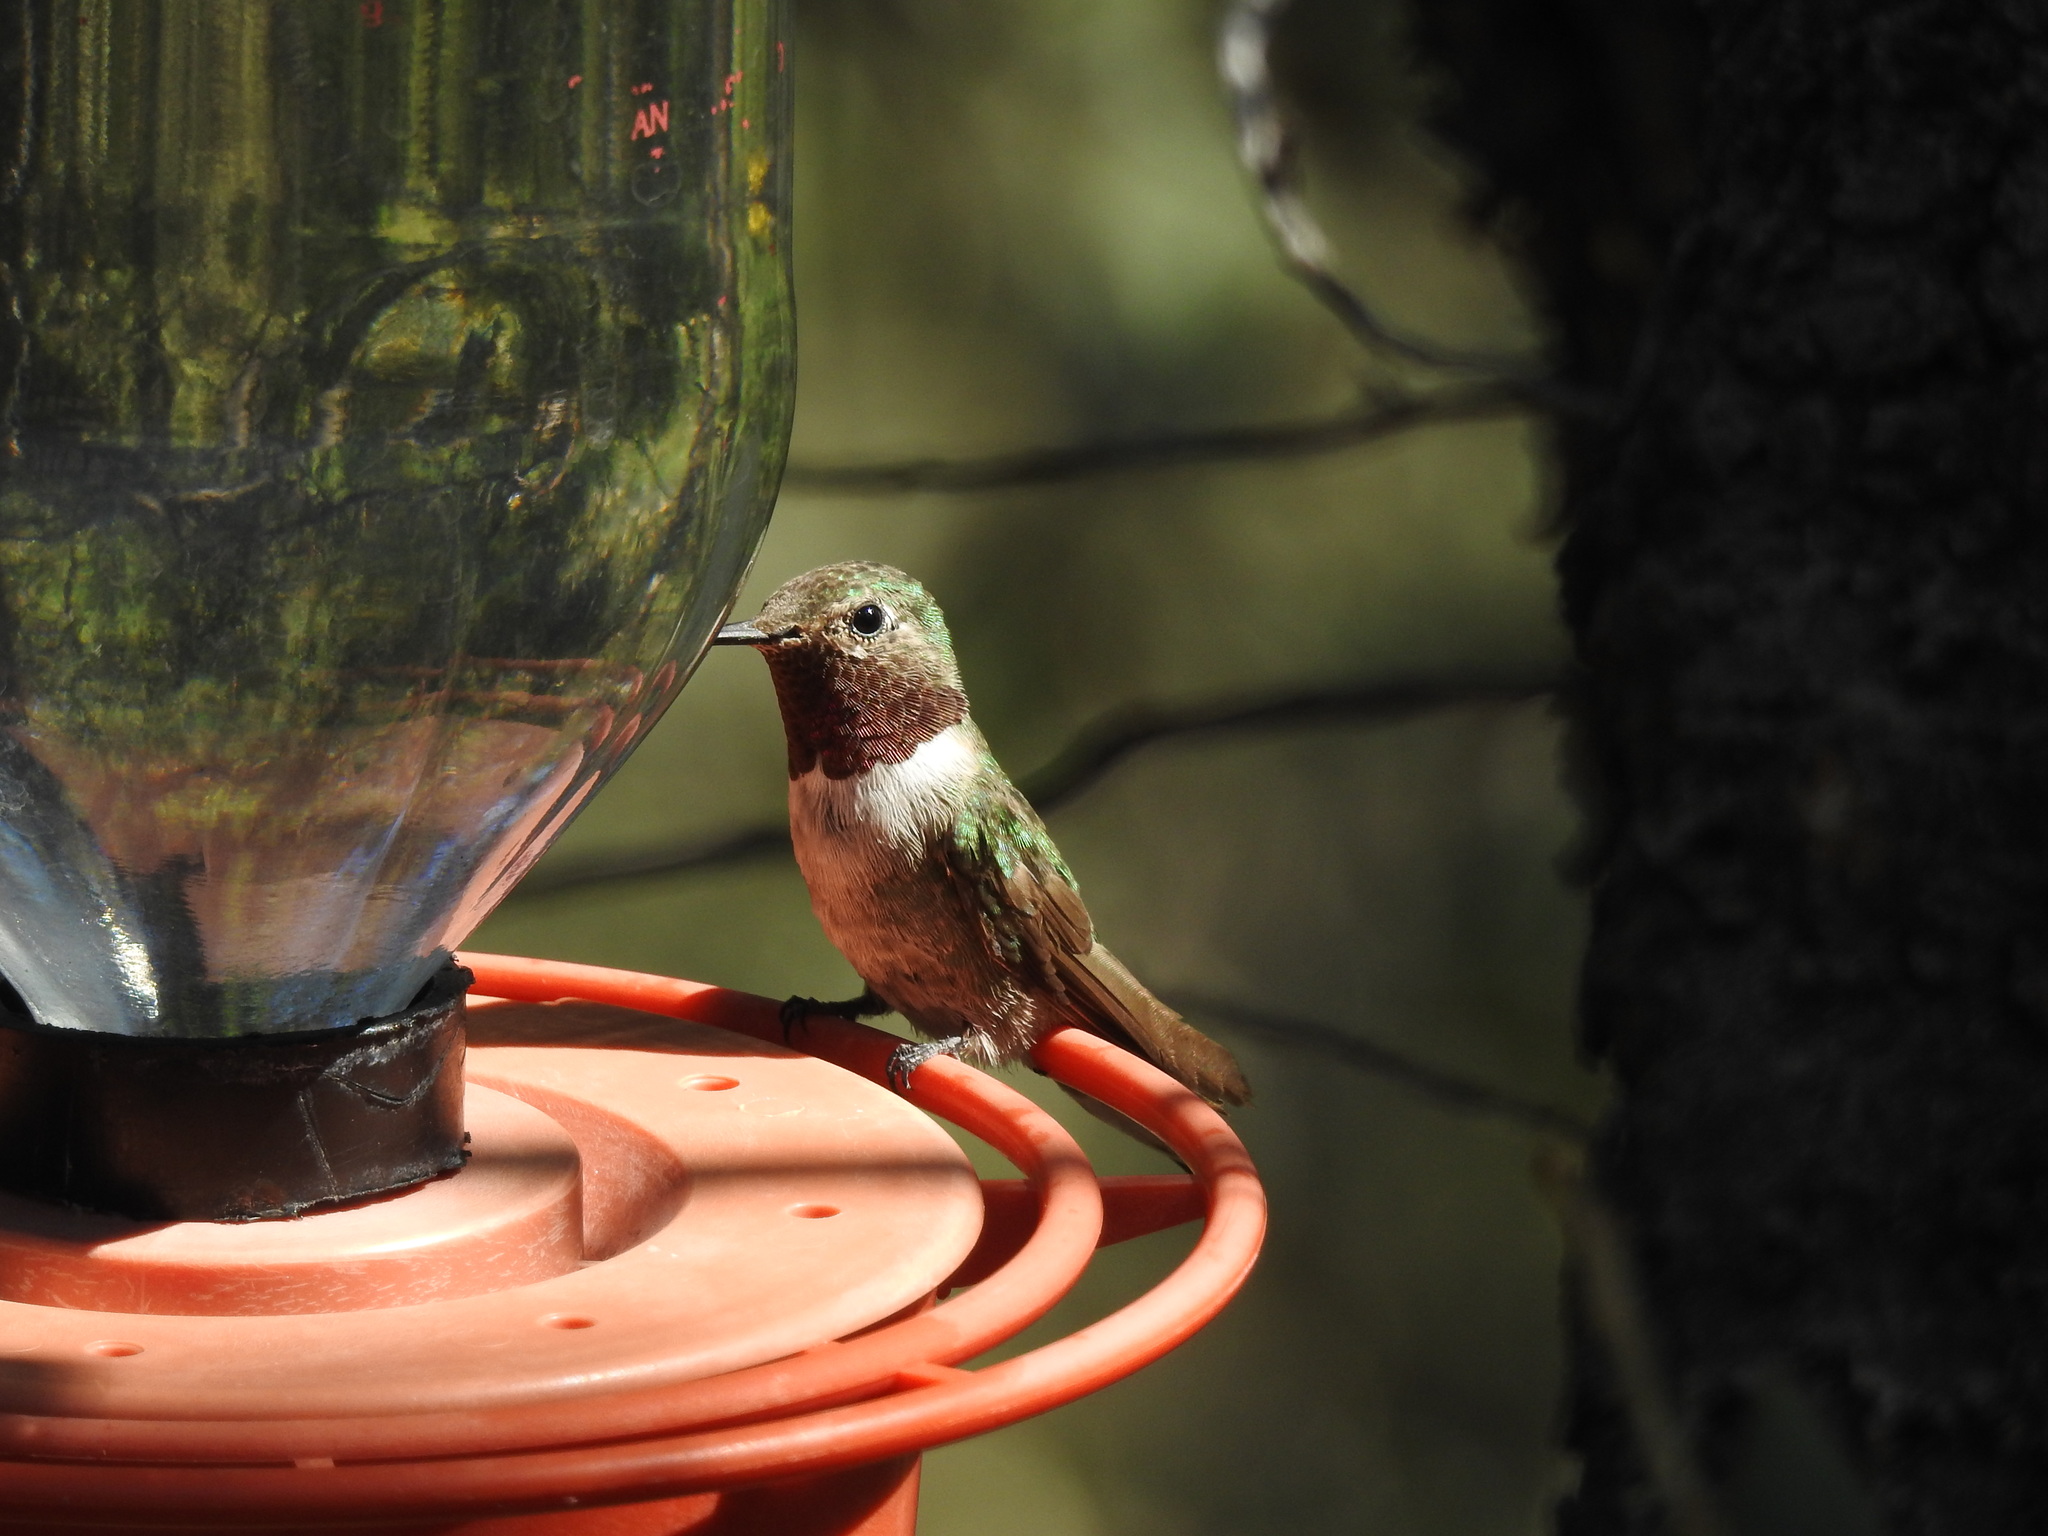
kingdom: Animalia
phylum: Chordata
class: Aves
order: Apodiformes
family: Trochilidae
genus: Selasphorus
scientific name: Selasphorus platycercus
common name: Broad-tailed hummingbird
